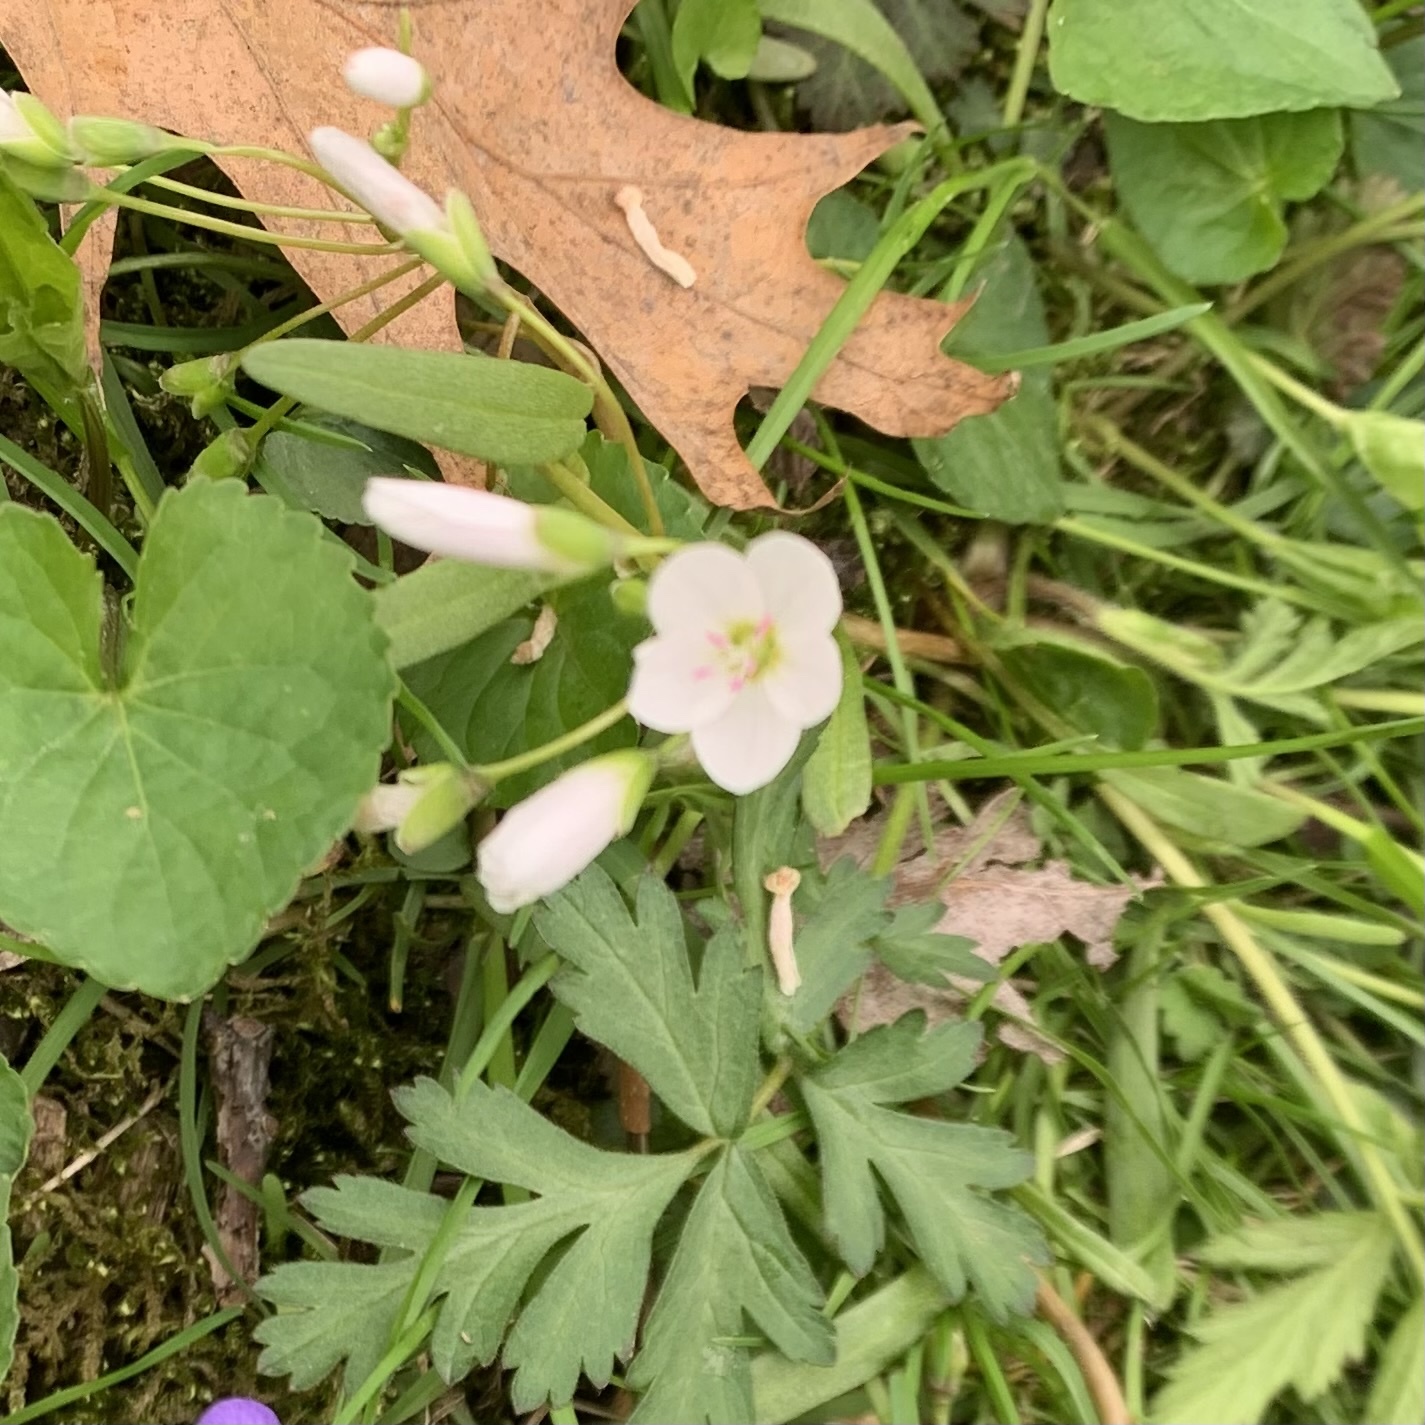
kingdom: Plantae
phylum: Tracheophyta
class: Magnoliopsida
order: Caryophyllales
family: Montiaceae
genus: Claytonia
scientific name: Claytonia virginica
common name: Virginia springbeauty
